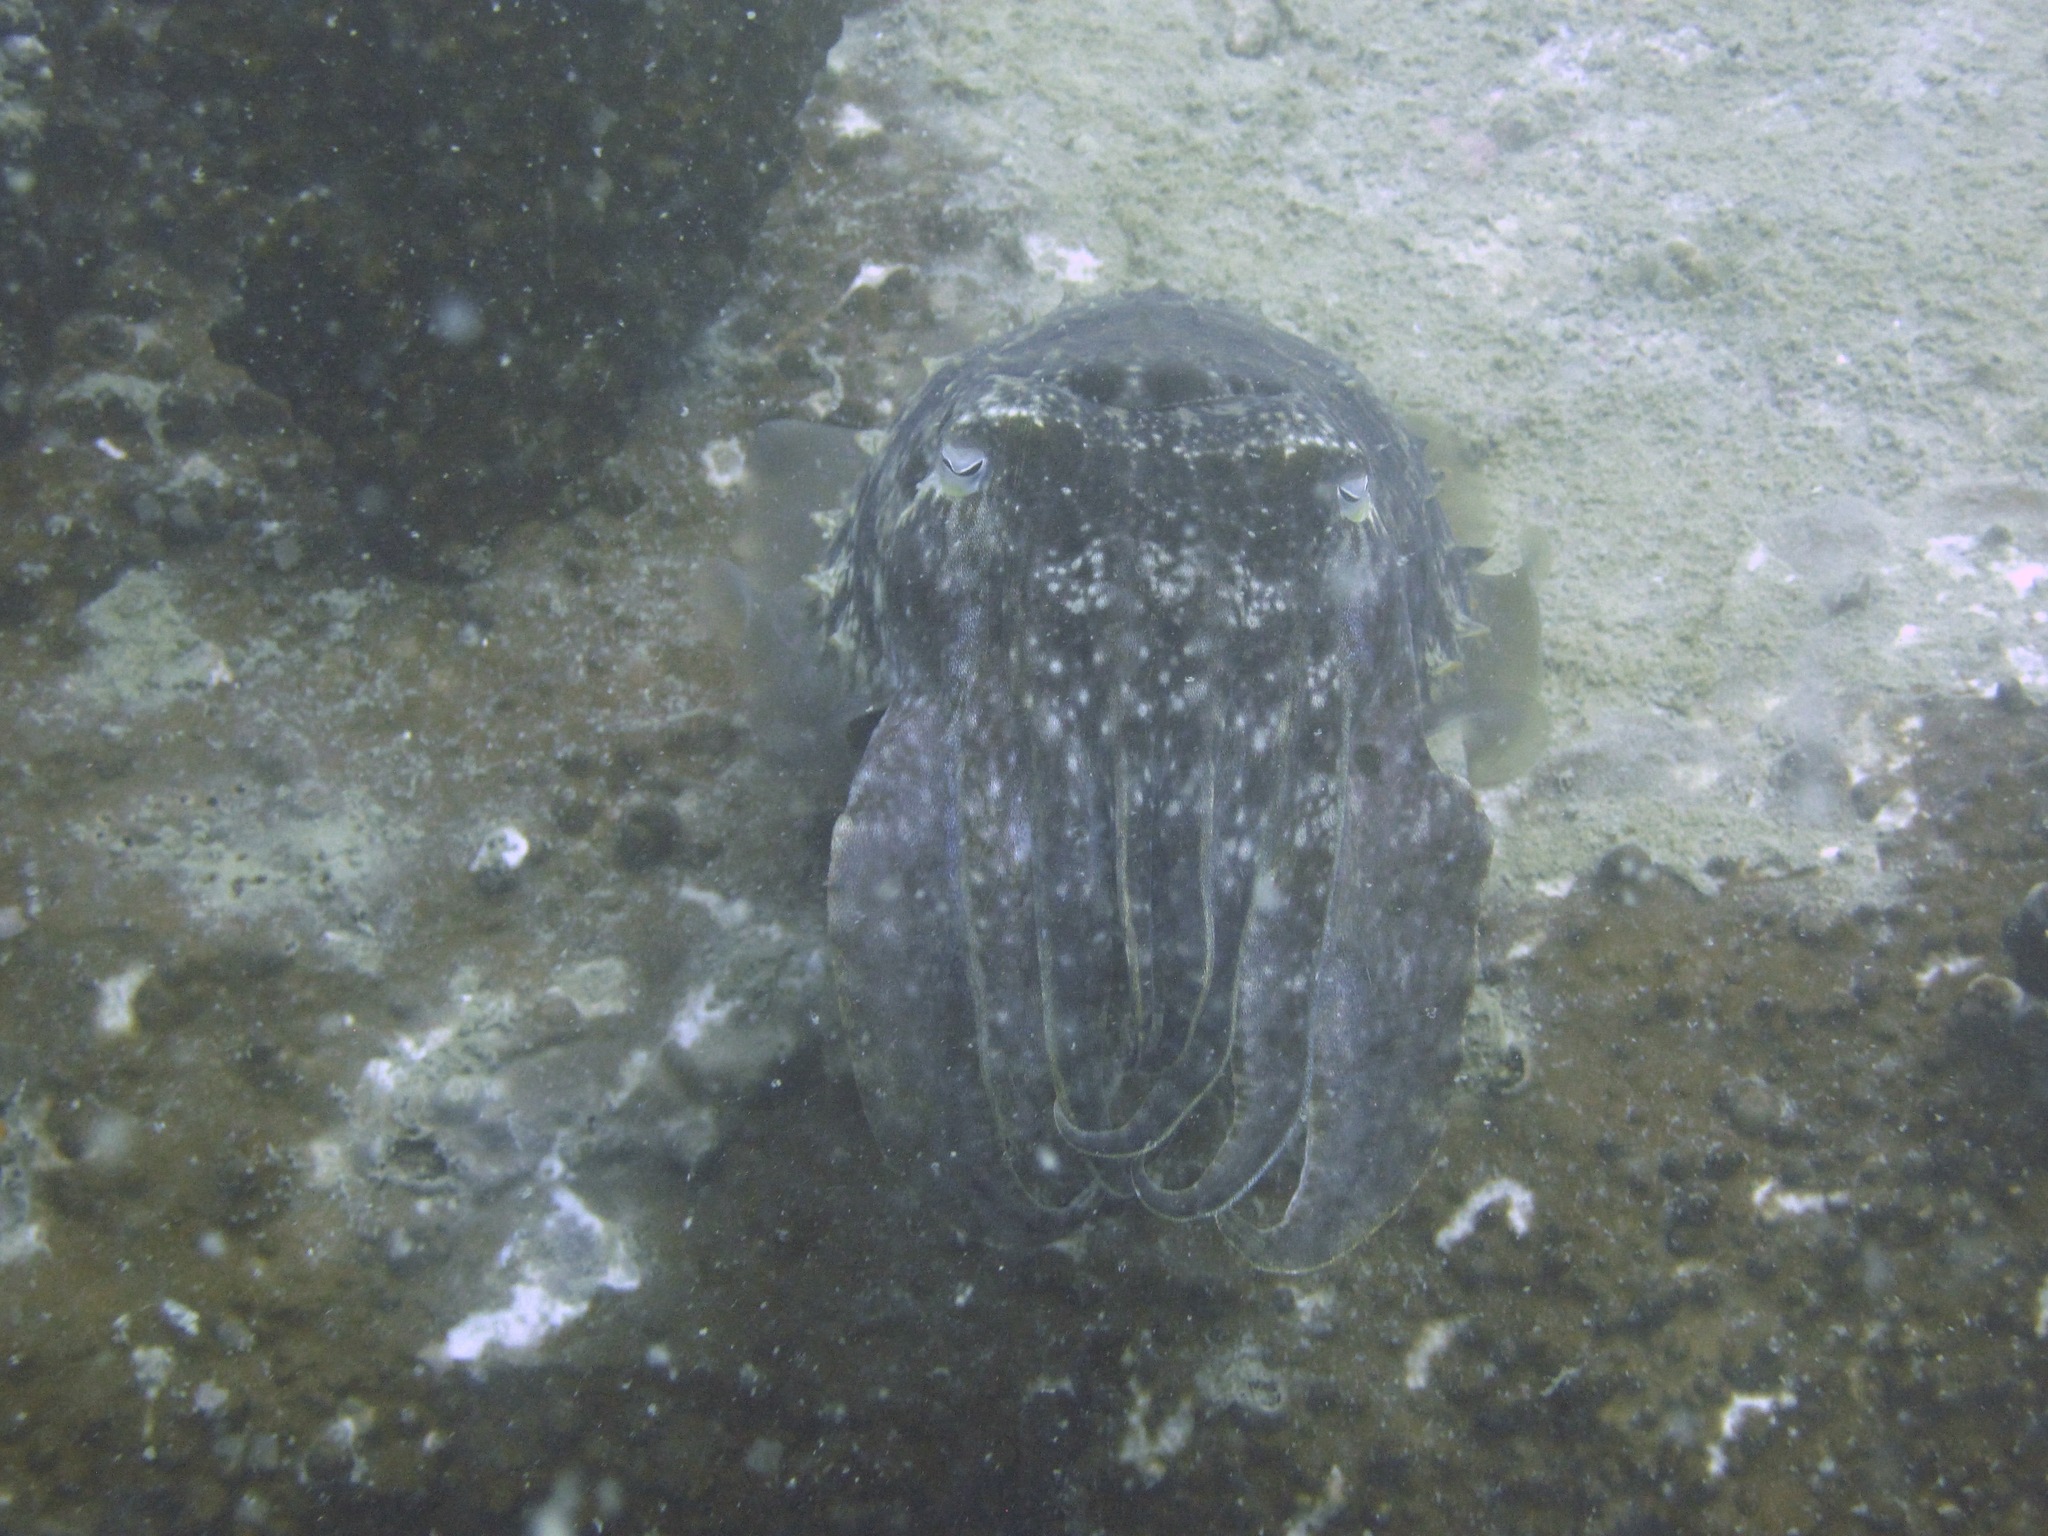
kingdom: Animalia
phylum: Mollusca
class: Cephalopoda
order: Sepiida
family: Sepiidae
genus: Ascarosepion
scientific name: Ascarosepion latimanus
